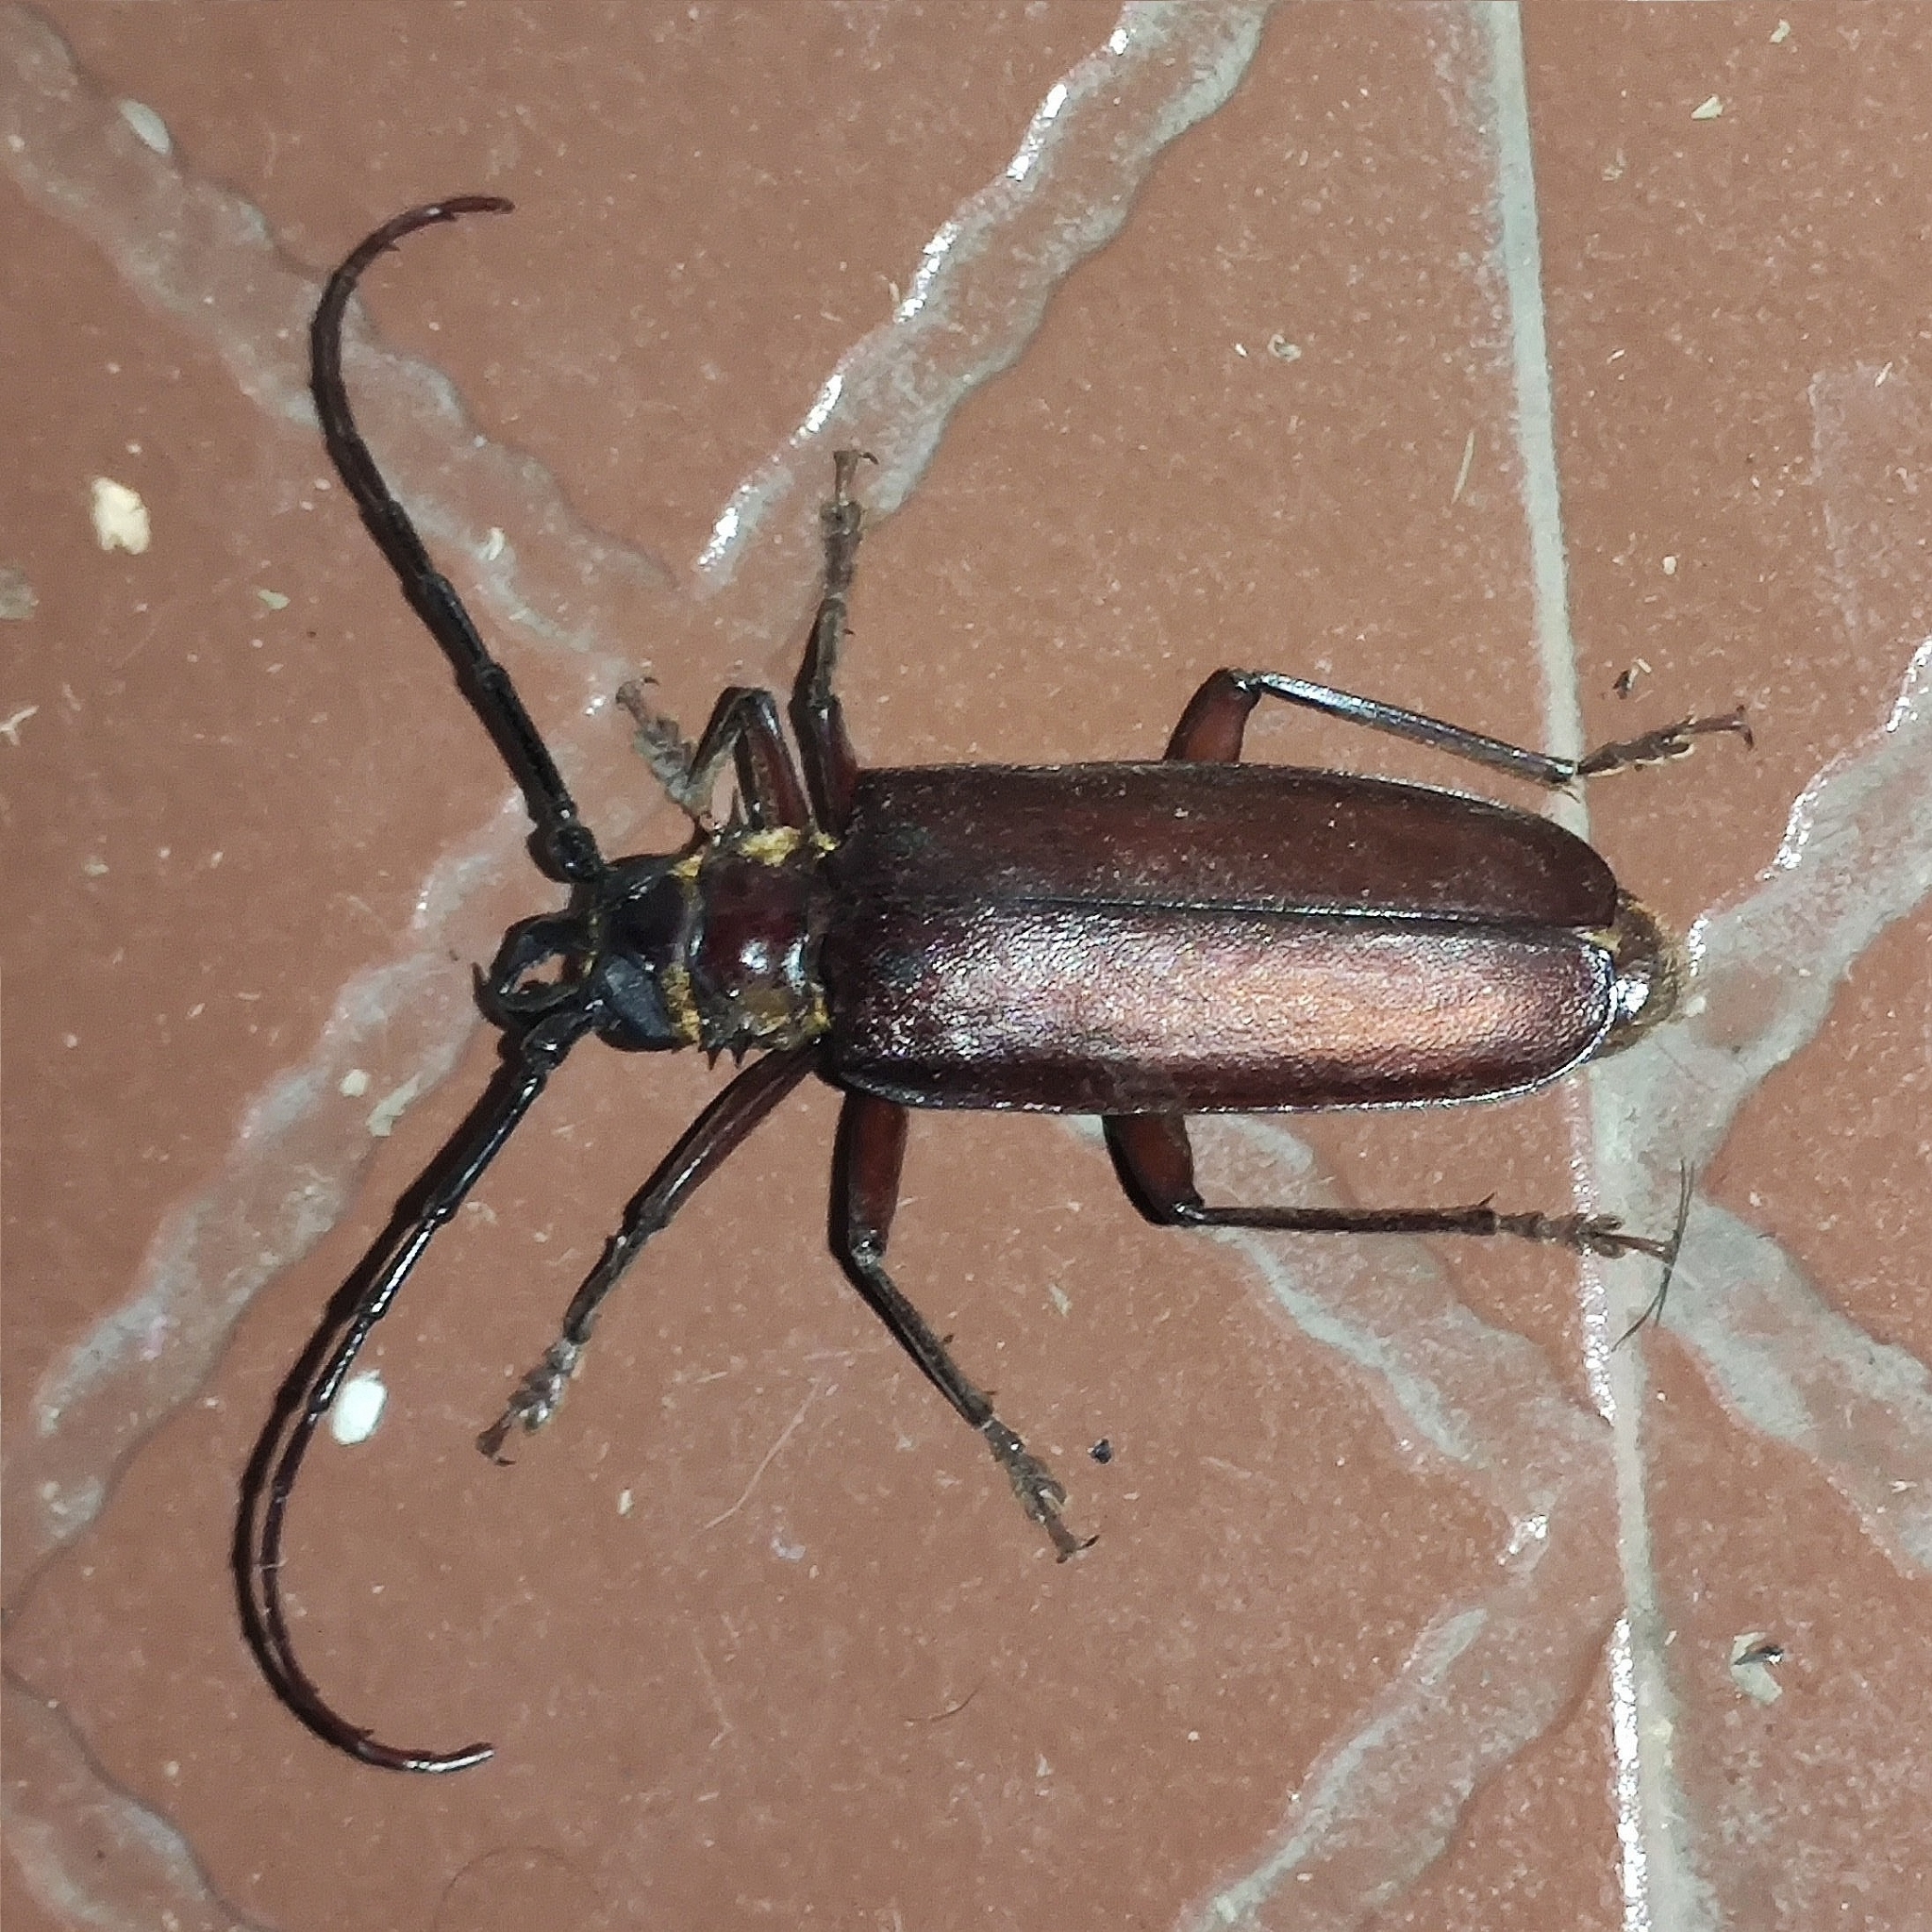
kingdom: Animalia
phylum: Arthropoda
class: Insecta
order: Coleoptera
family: Cerambycidae
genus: Acanthophorus
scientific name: Acanthophorus serraticornis
